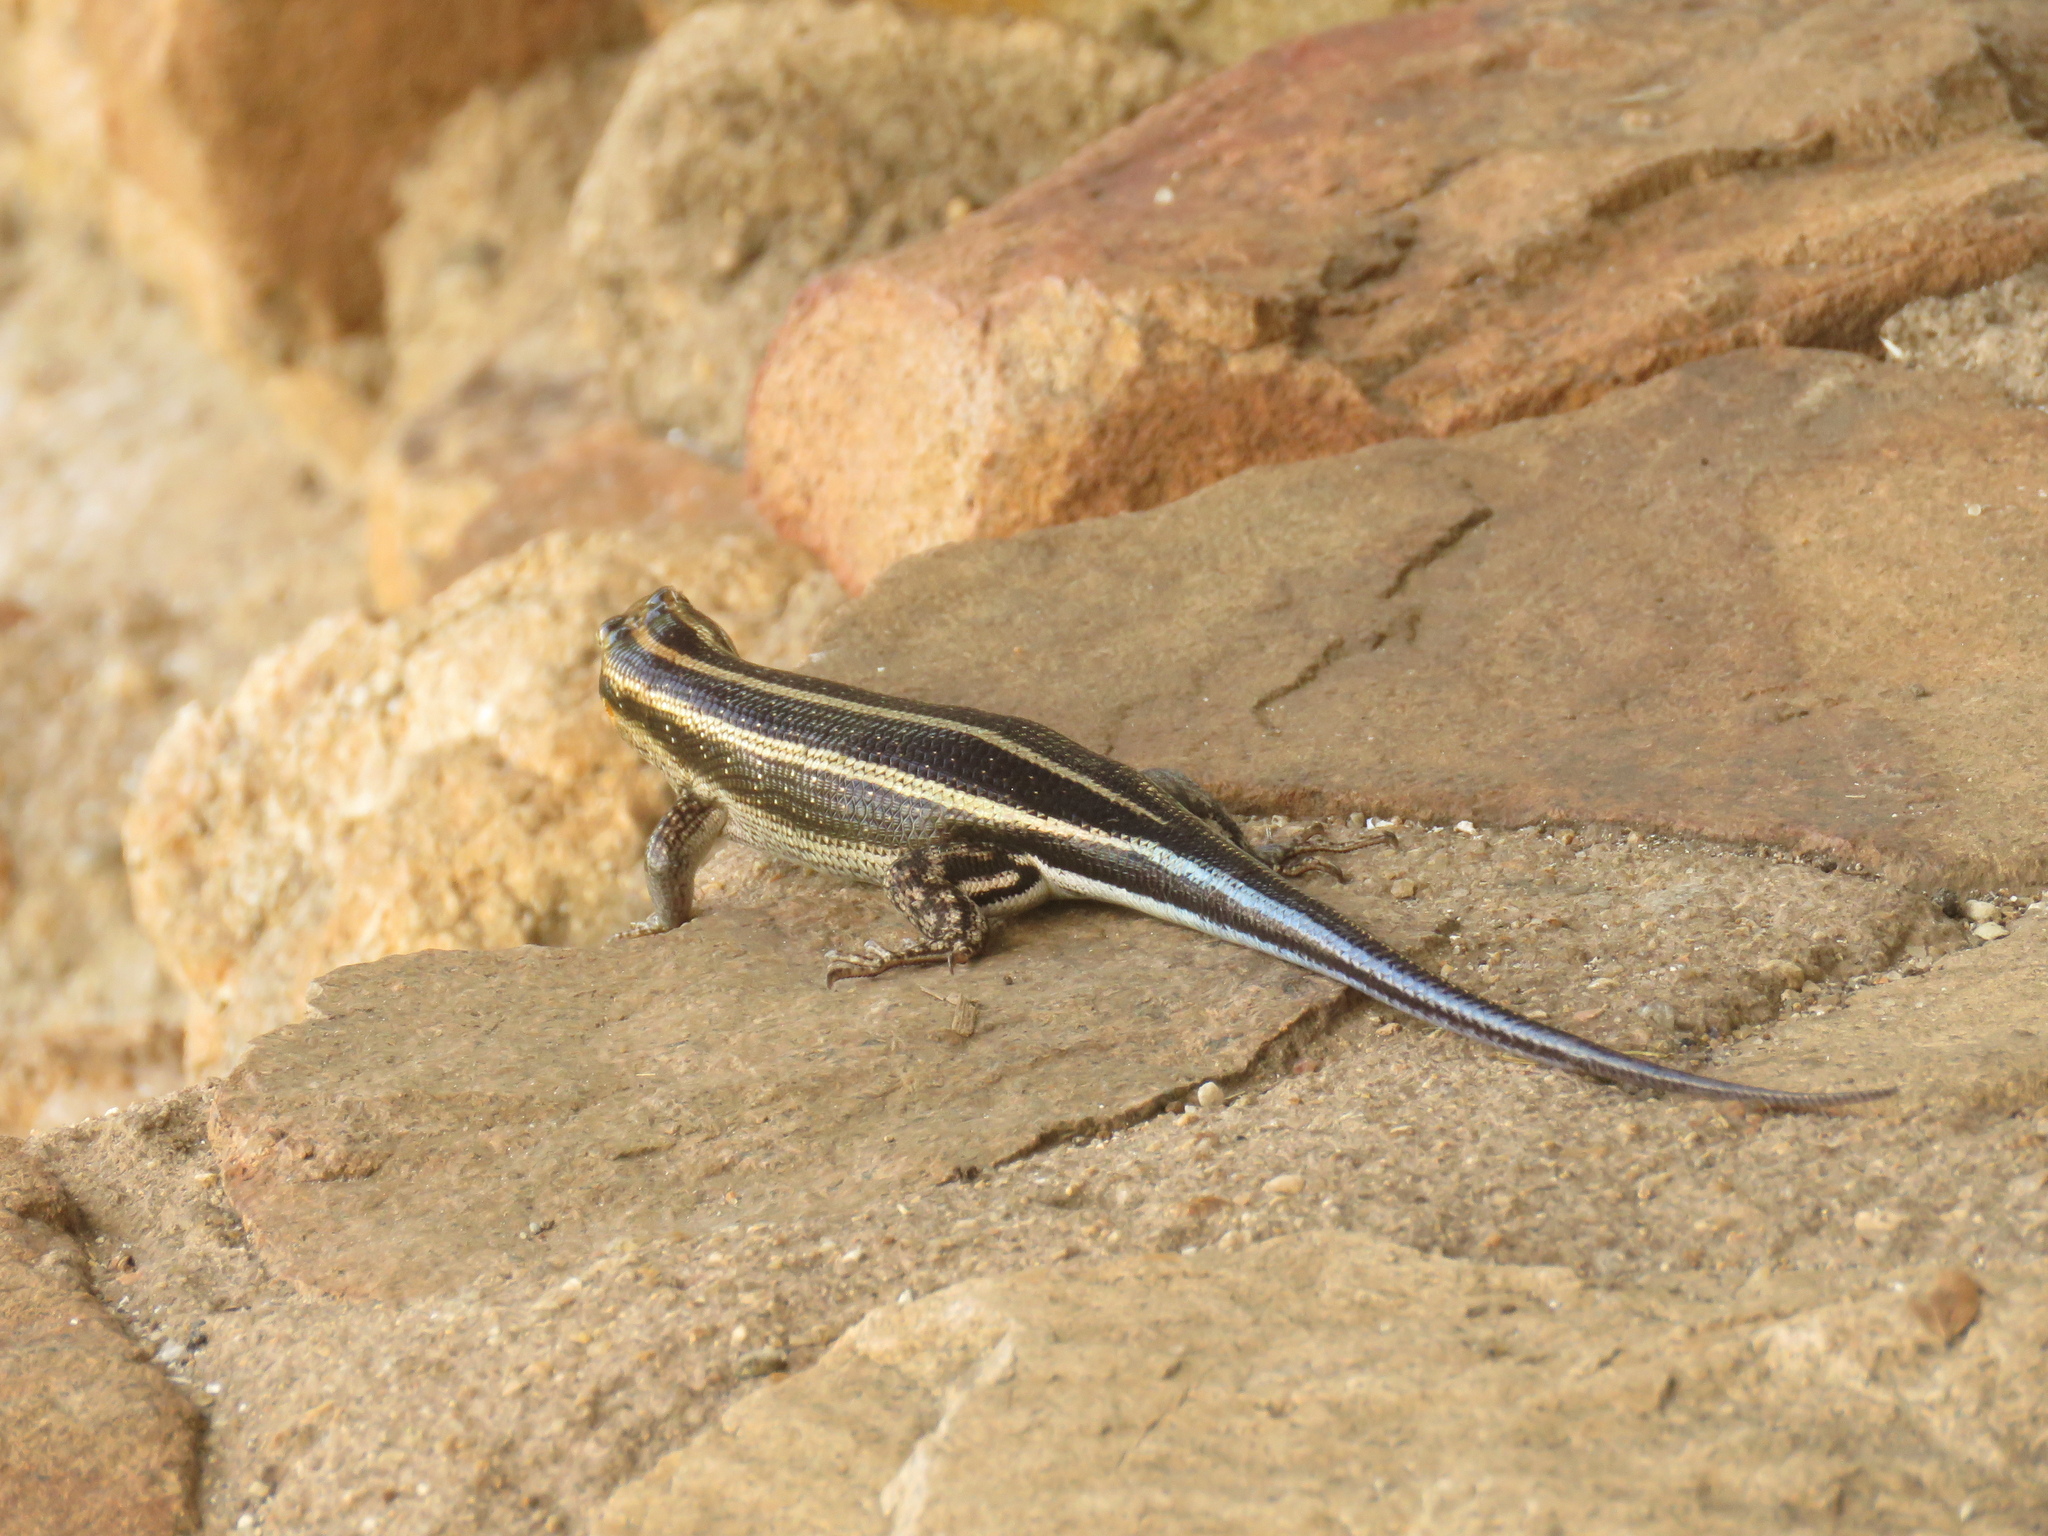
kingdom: Animalia
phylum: Chordata
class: Squamata
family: Scincidae
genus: Trachylepis
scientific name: Trachylepis margaritifera
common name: Rainbow skink
